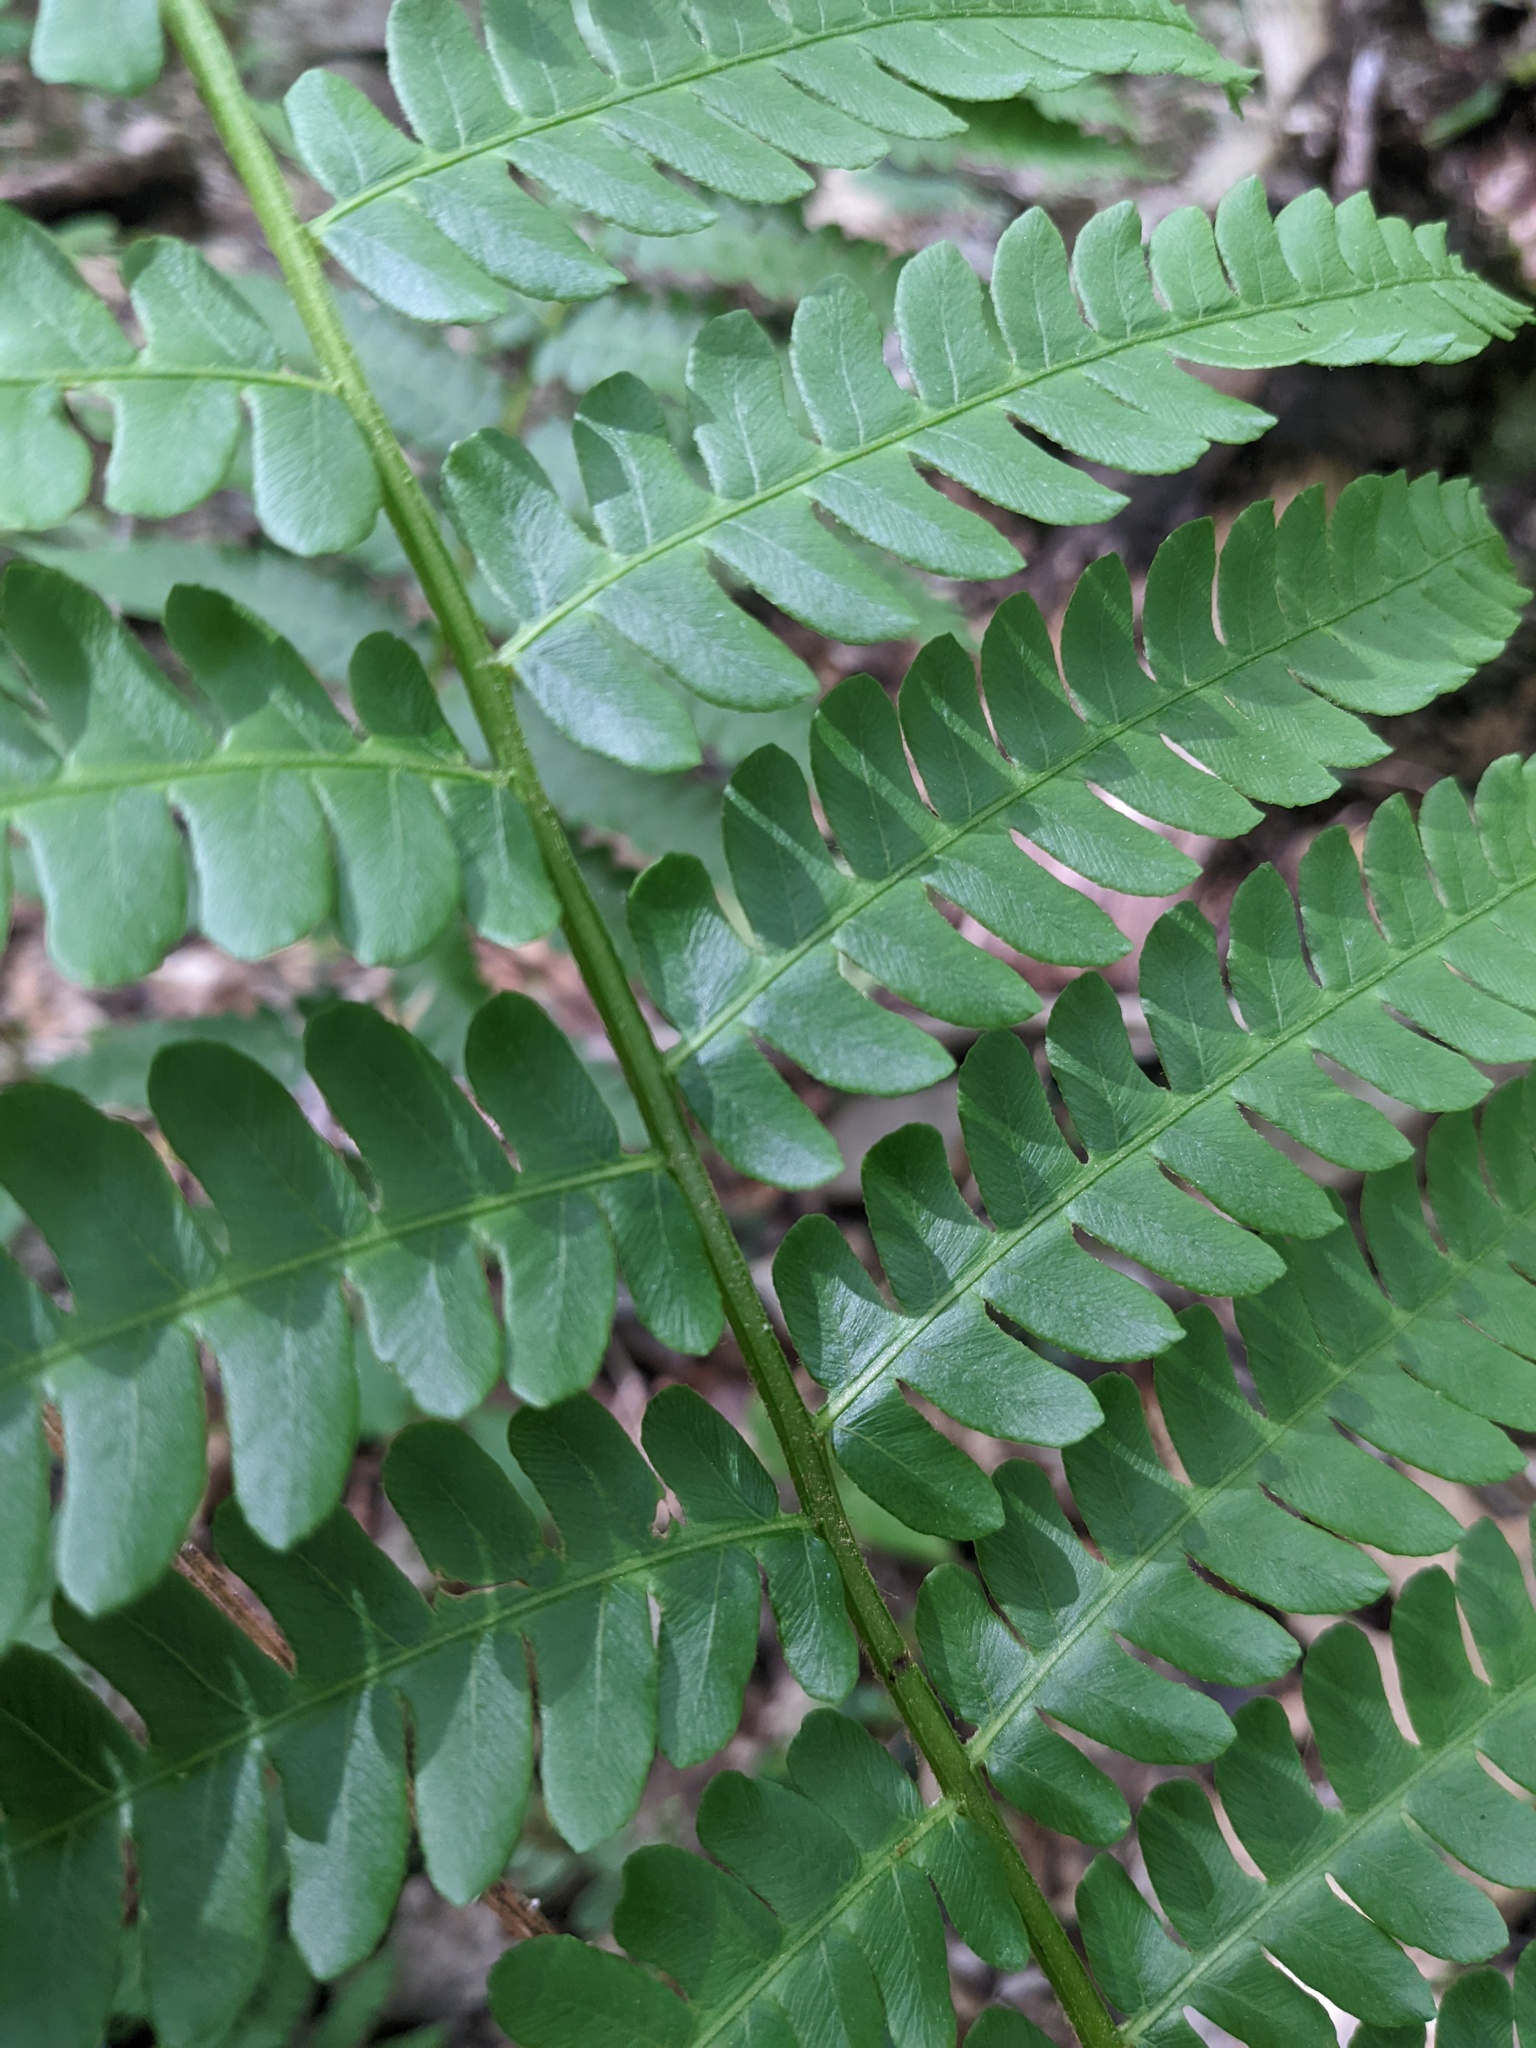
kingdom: Plantae
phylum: Tracheophyta
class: Polypodiopsida
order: Osmundales
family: Osmundaceae
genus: Osmundastrum
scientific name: Osmundastrum cinnamomeum
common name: Cinnamon fern
